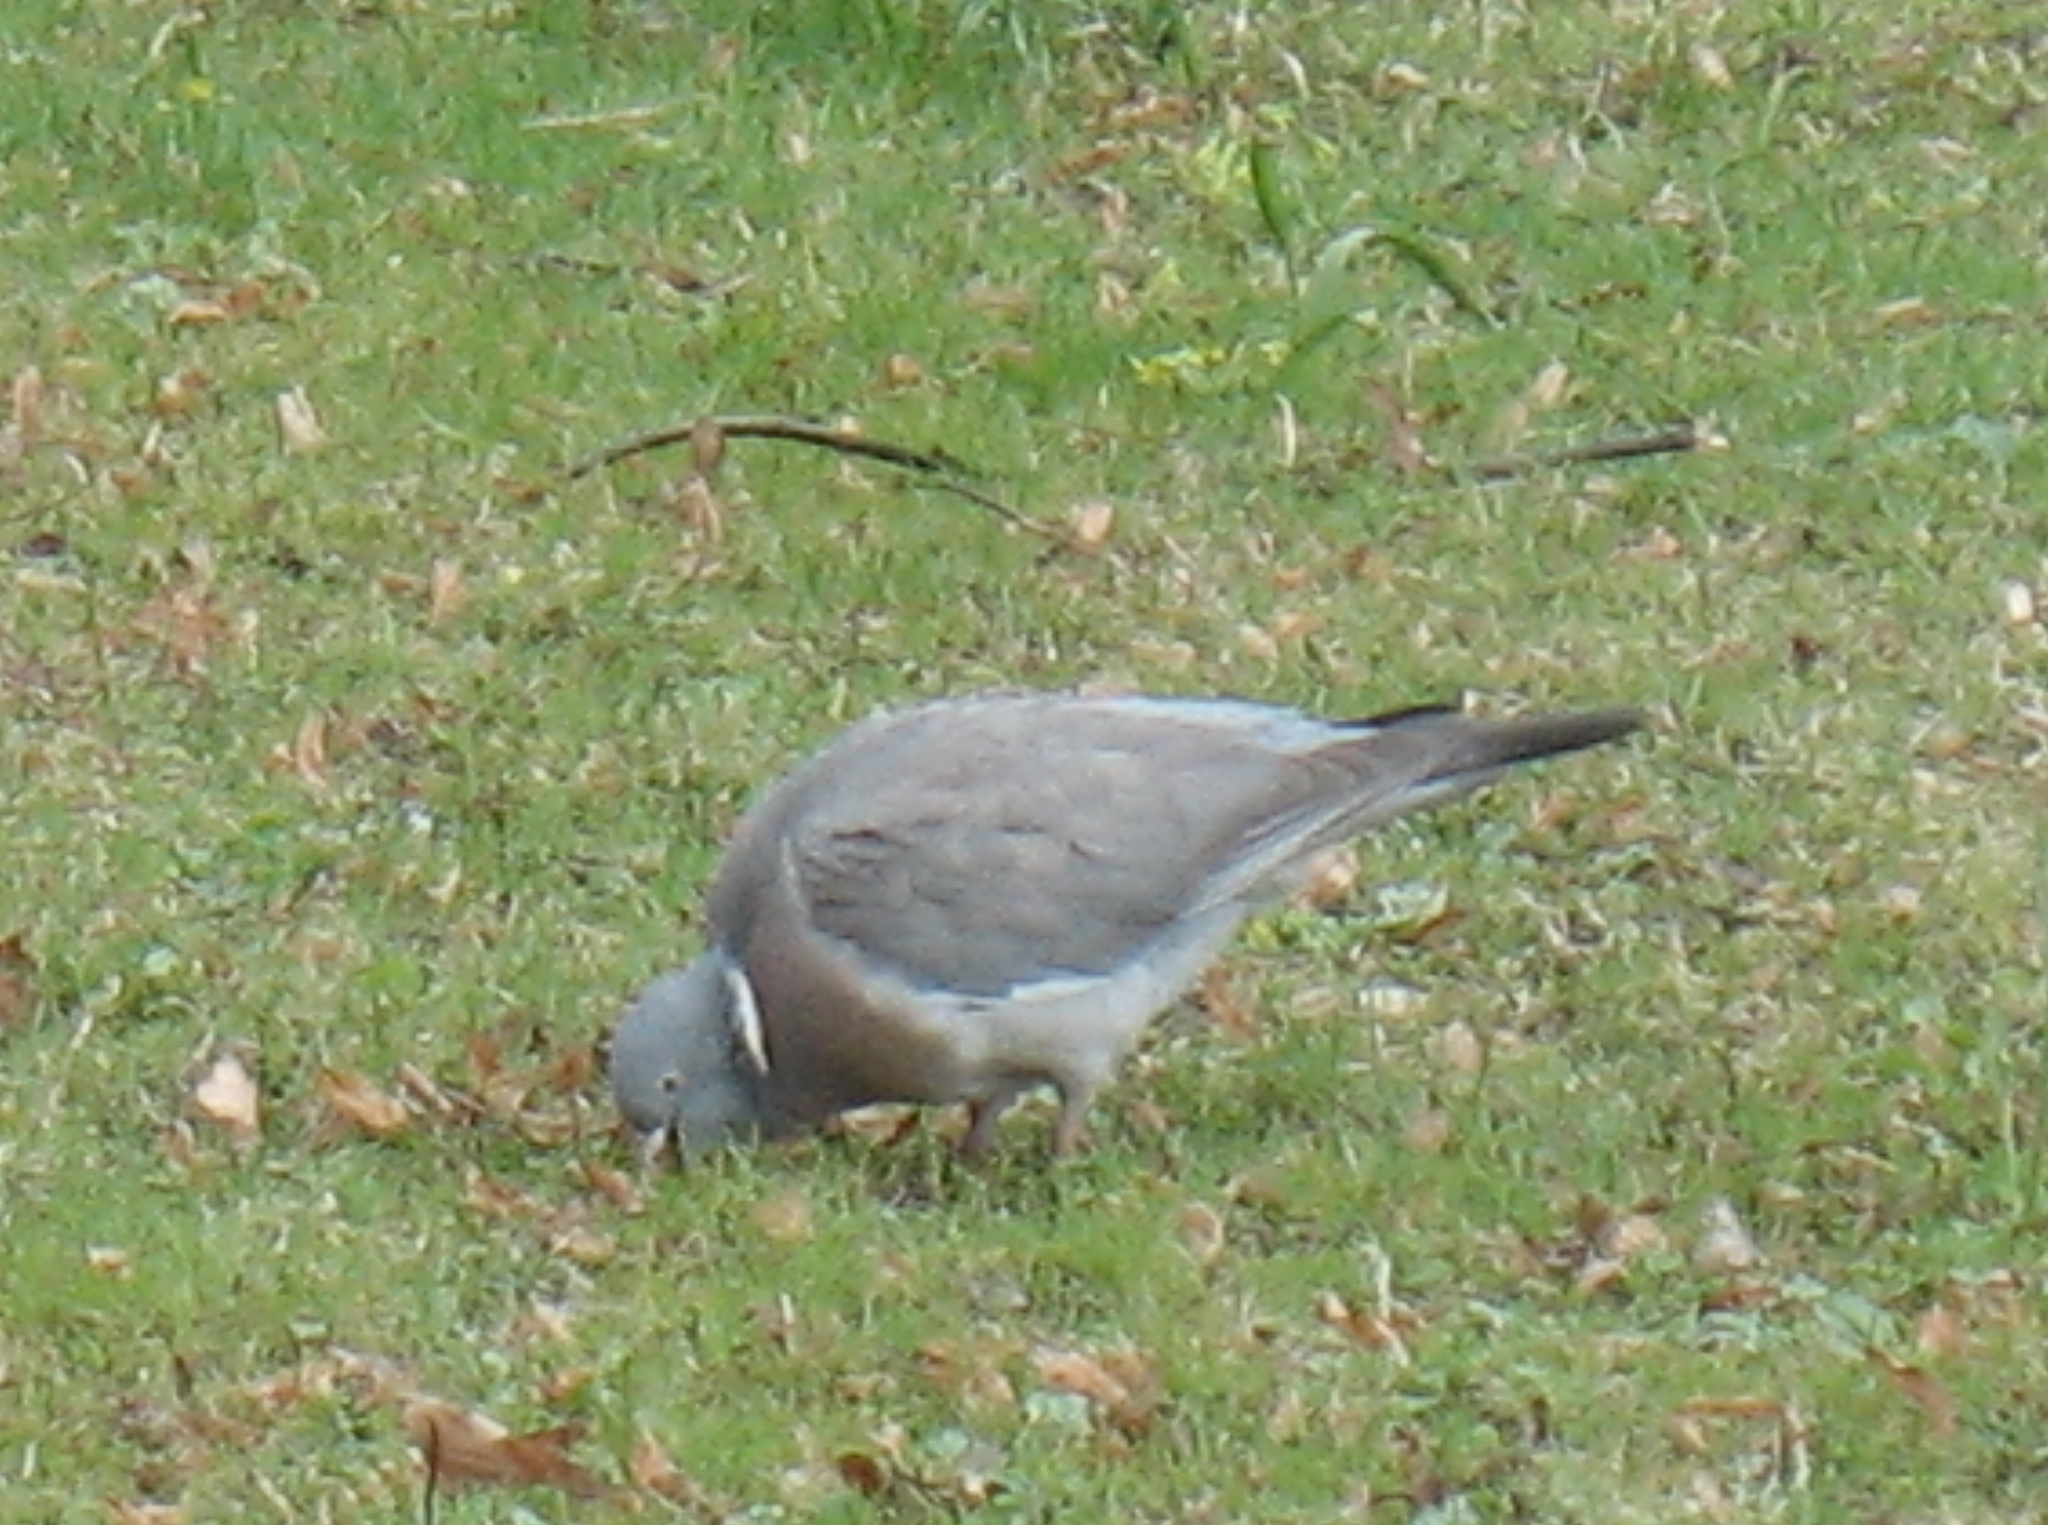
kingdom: Animalia
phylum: Chordata
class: Aves
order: Columbiformes
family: Columbidae
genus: Columba
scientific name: Columba palumbus
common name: Common wood pigeon
